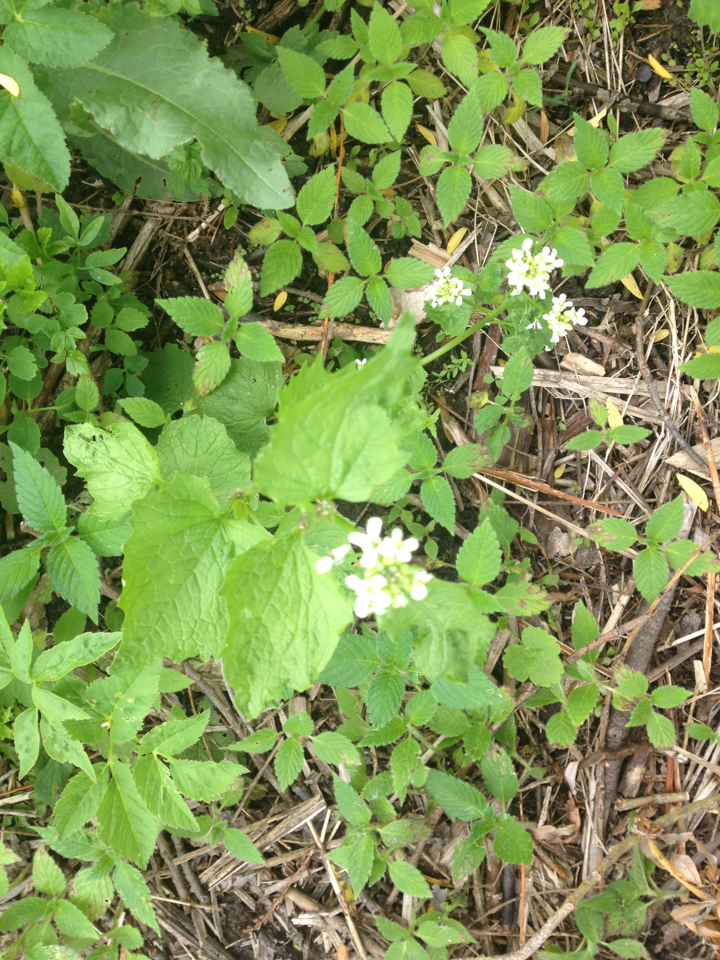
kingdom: Plantae
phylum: Tracheophyta
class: Magnoliopsida
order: Brassicales
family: Brassicaceae
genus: Alliaria
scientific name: Alliaria petiolata
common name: Garlic mustard
